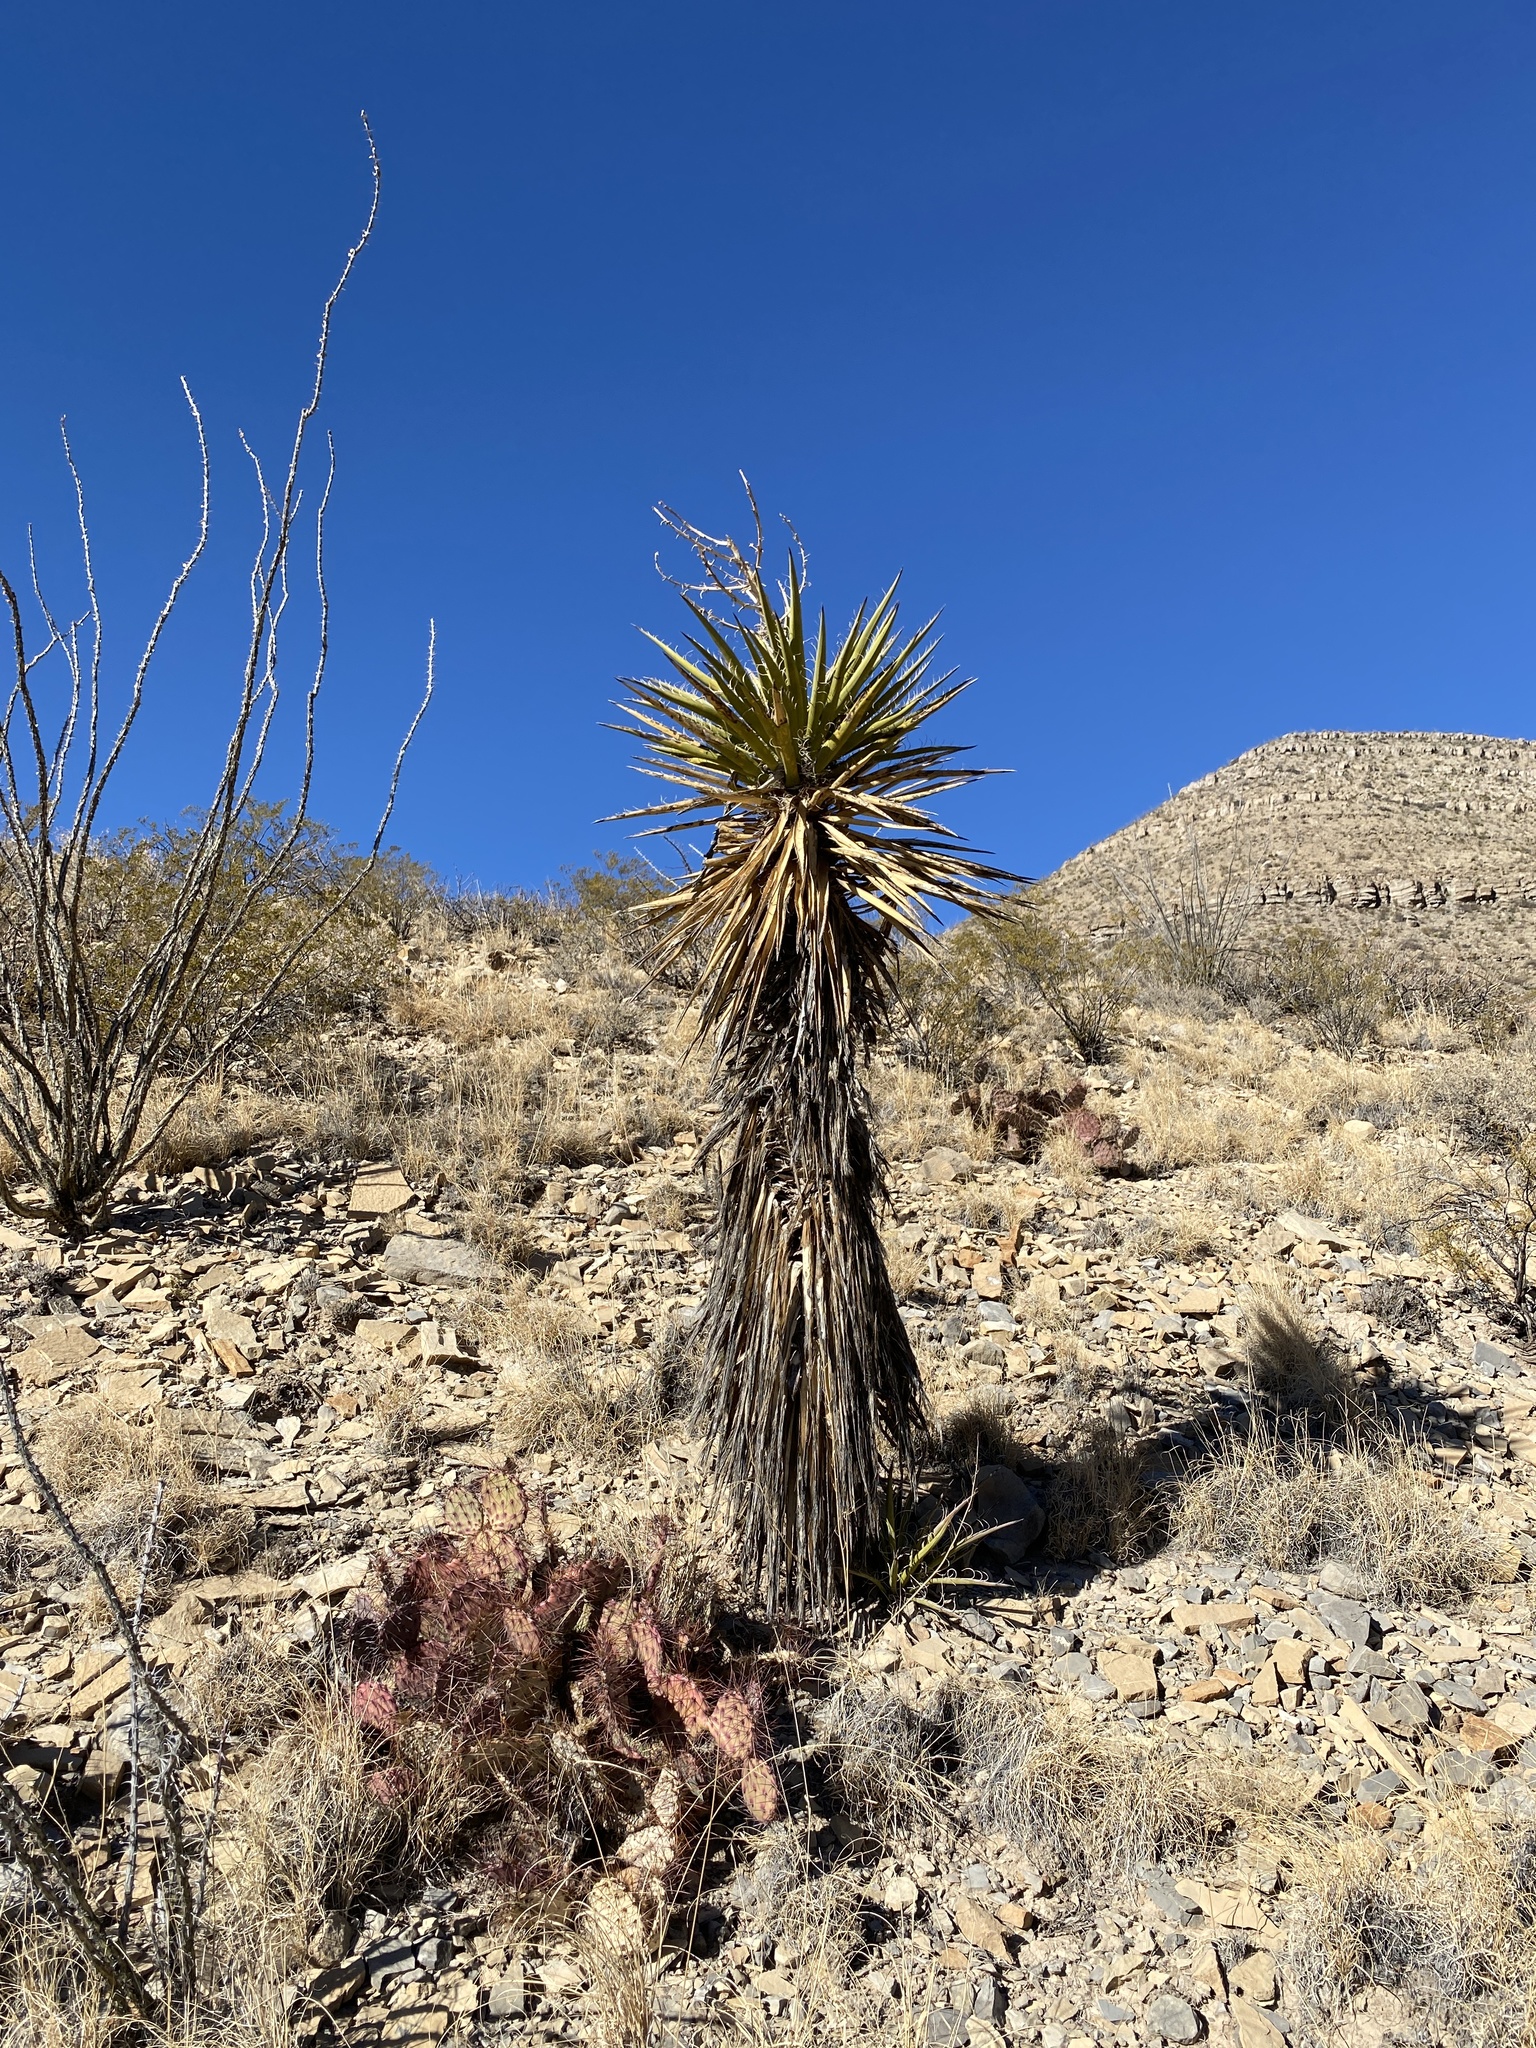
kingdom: Plantae
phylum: Tracheophyta
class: Liliopsida
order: Asparagales
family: Asparagaceae
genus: Yucca
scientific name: Yucca treculiana
